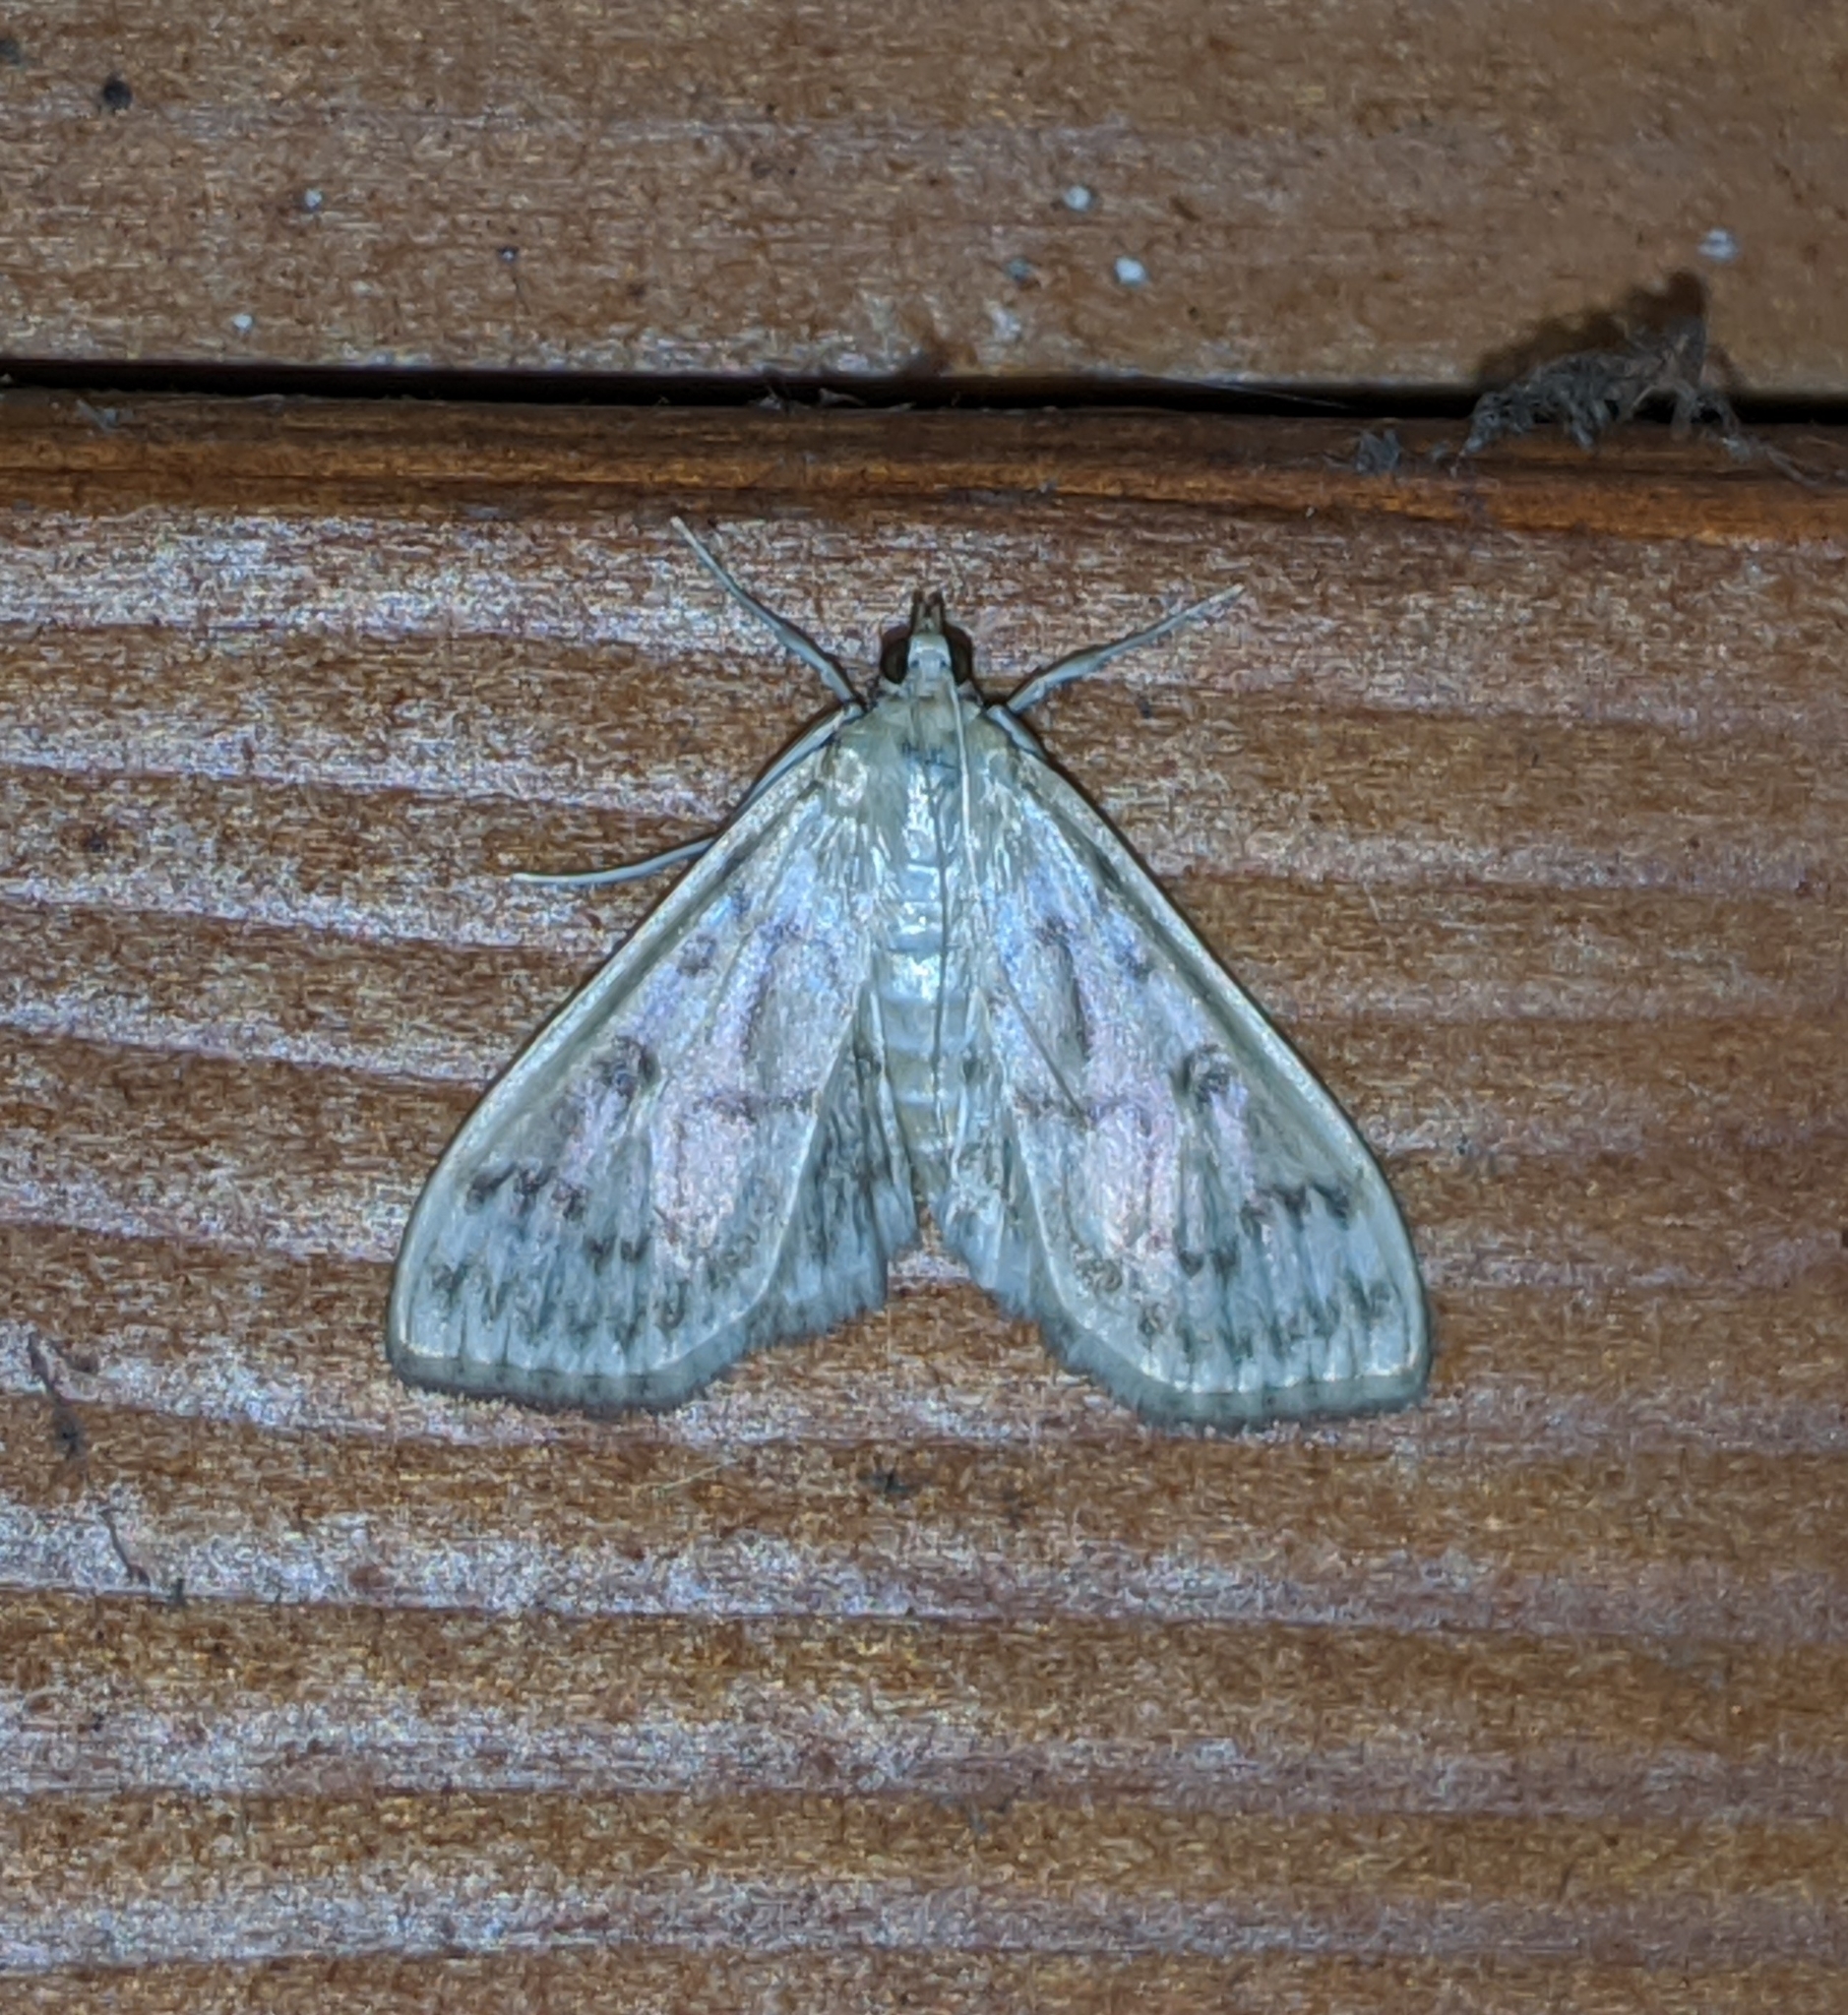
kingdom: Animalia
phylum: Arthropoda
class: Insecta
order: Lepidoptera
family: Crambidae
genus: Herpetogramma
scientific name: Herpetogramma aquilonalis
